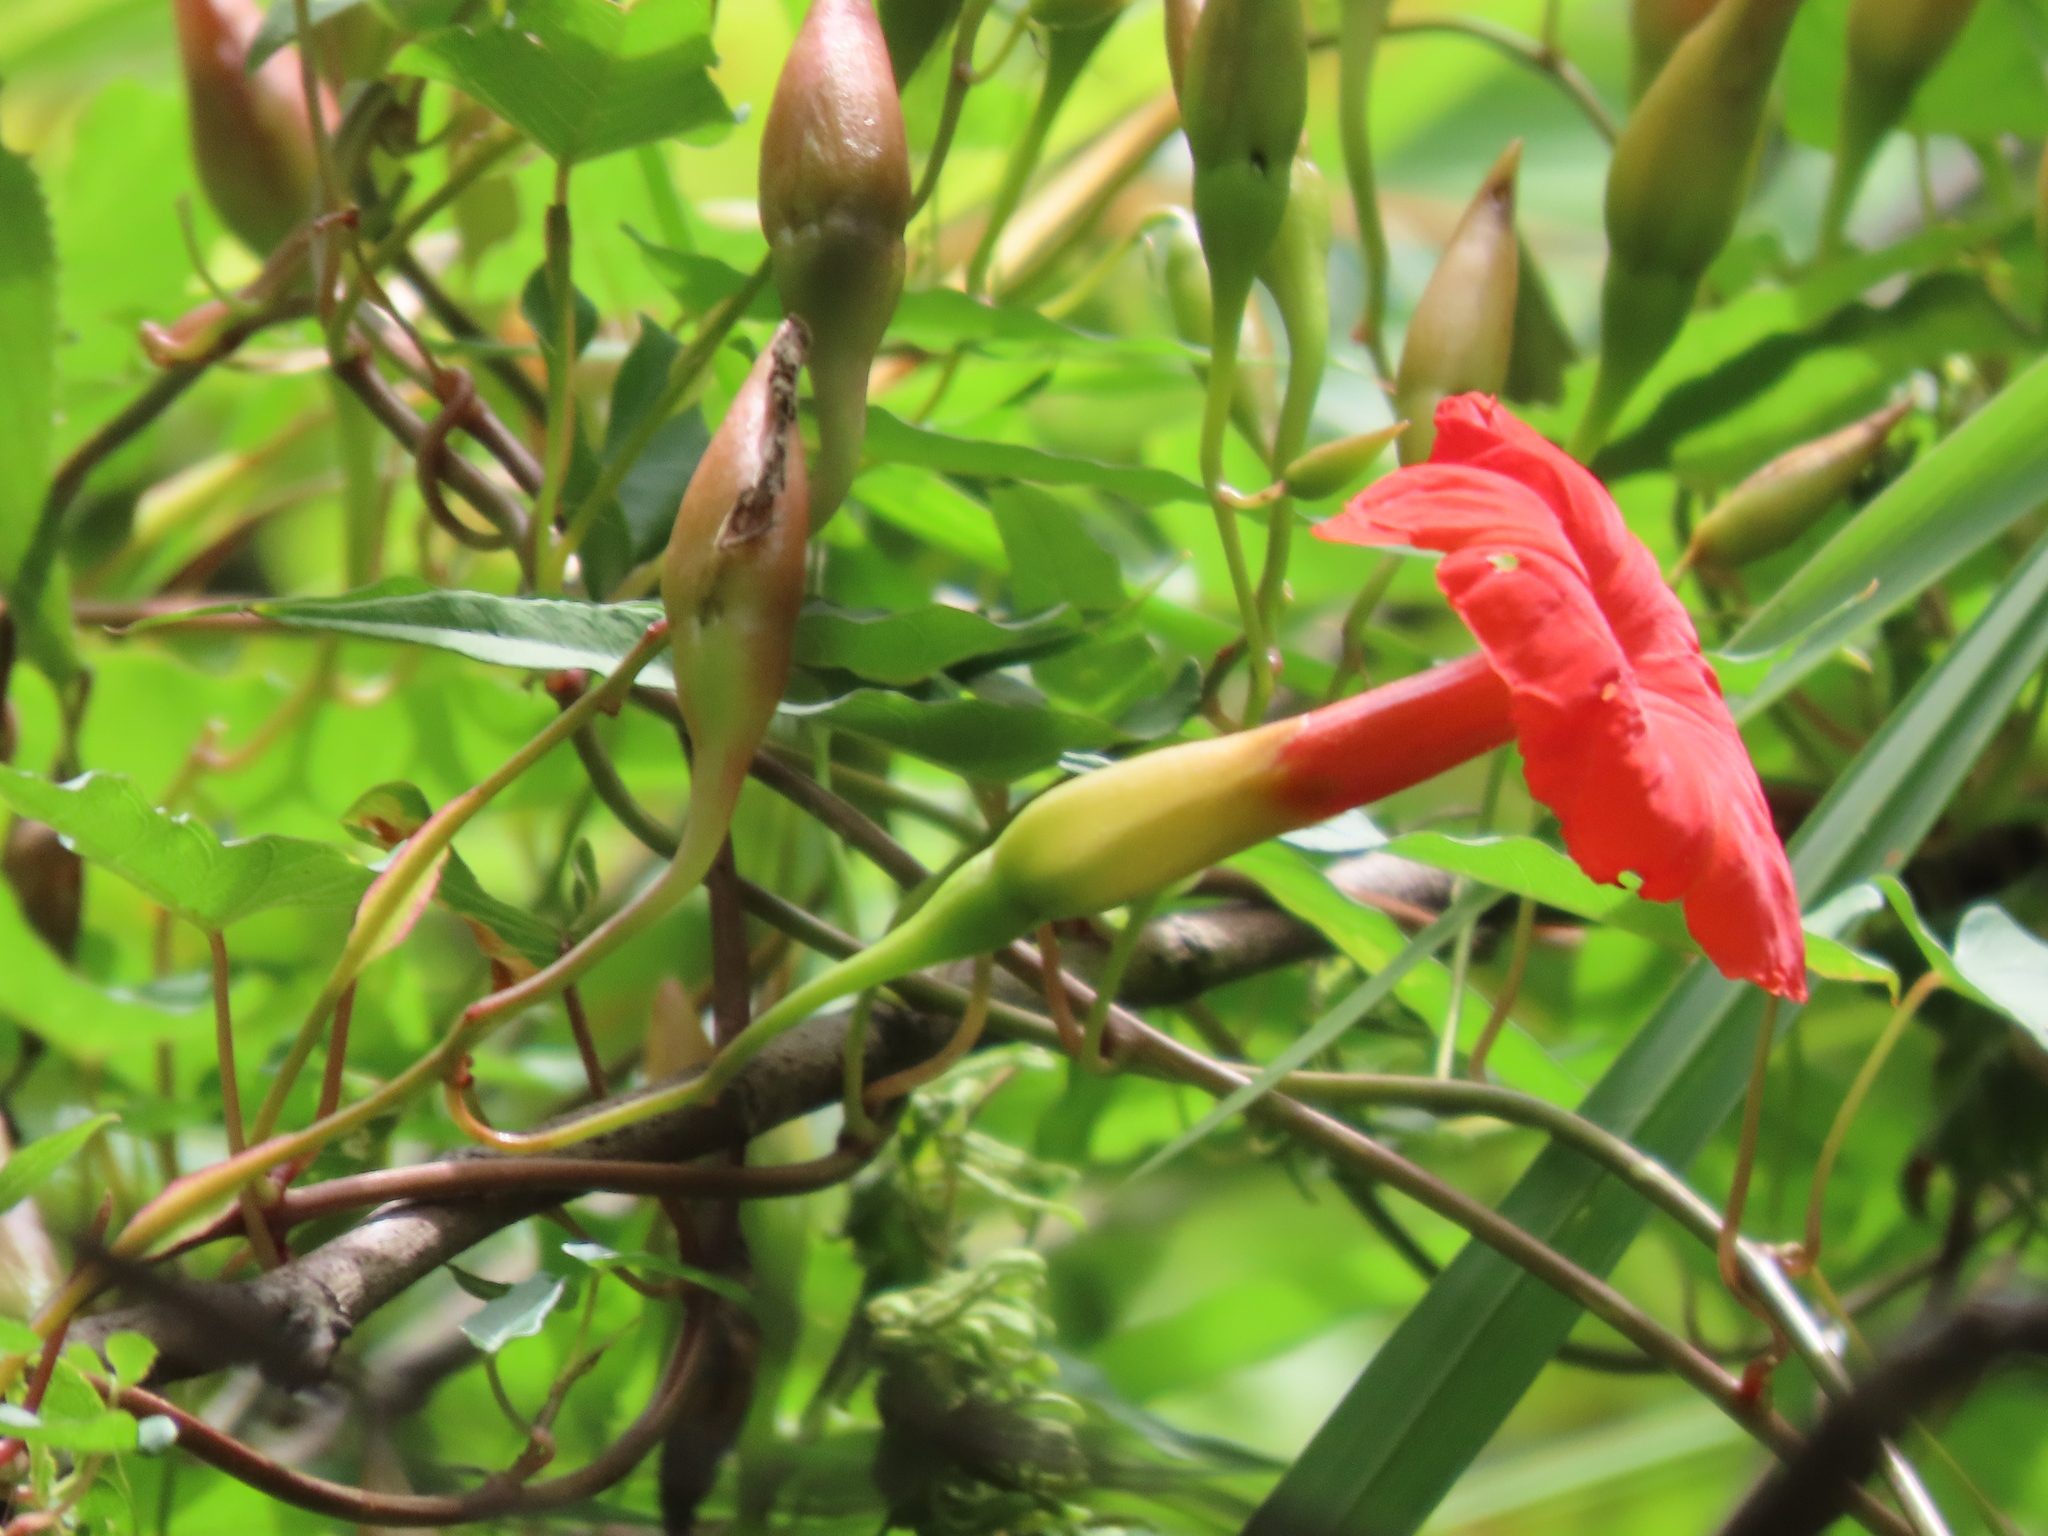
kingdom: Plantae
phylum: Tracheophyta
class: Magnoliopsida
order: Solanales
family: Convolvulaceae
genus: Operculina
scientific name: Operculina pteripes
